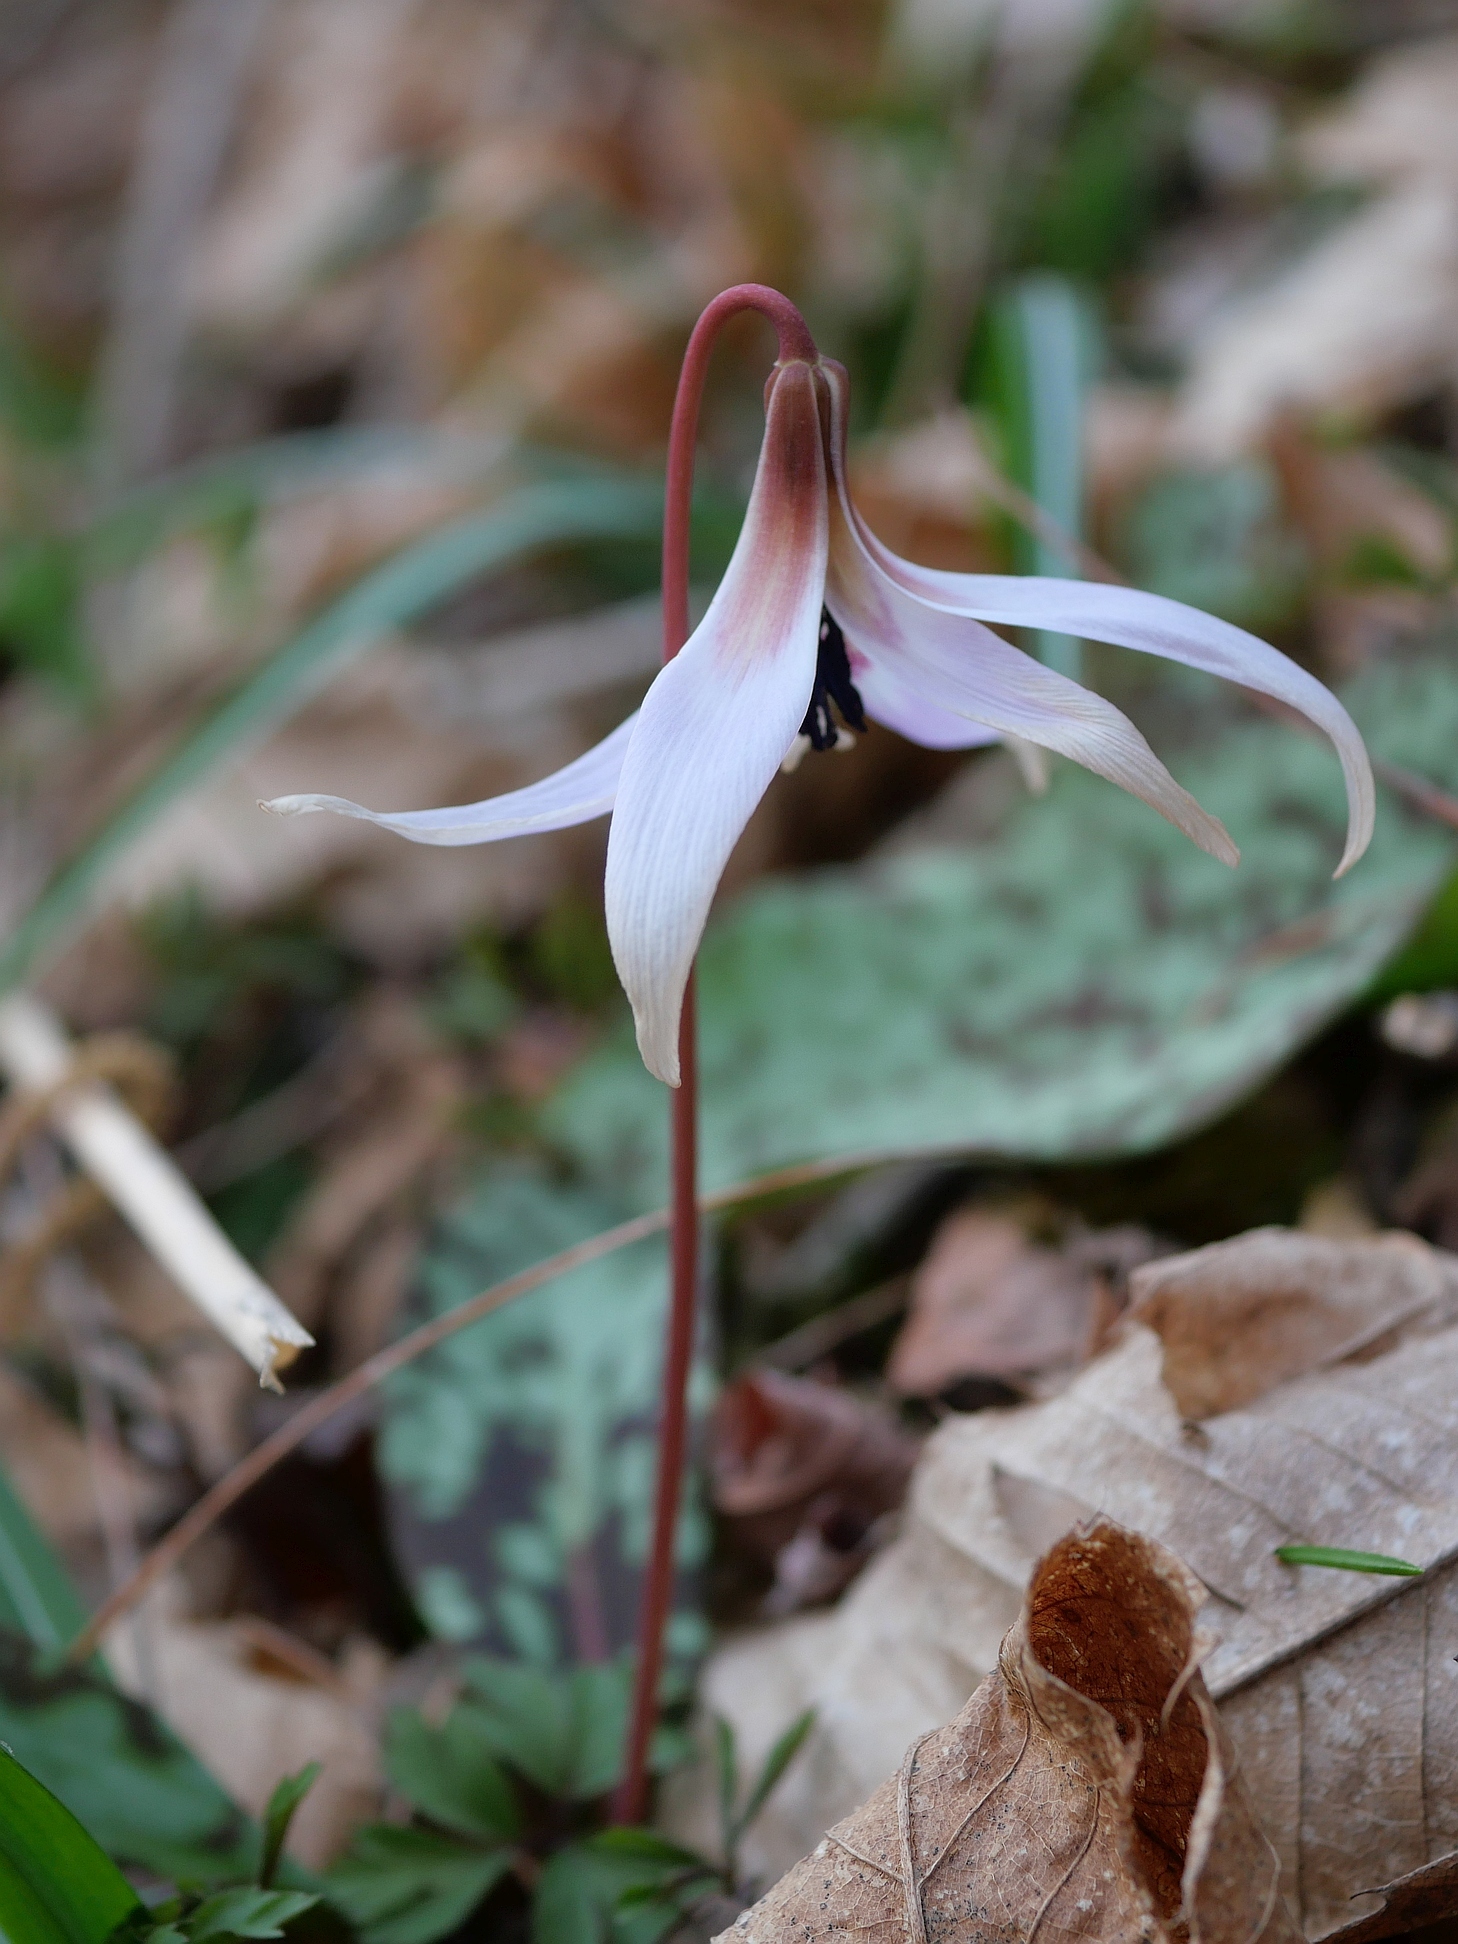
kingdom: Plantae
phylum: Tracheophyta
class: Liliopsida
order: Liliales
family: Liliaceae
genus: Erythronium
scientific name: Erythronium dens-canis
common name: Dog's-tooth-violet
